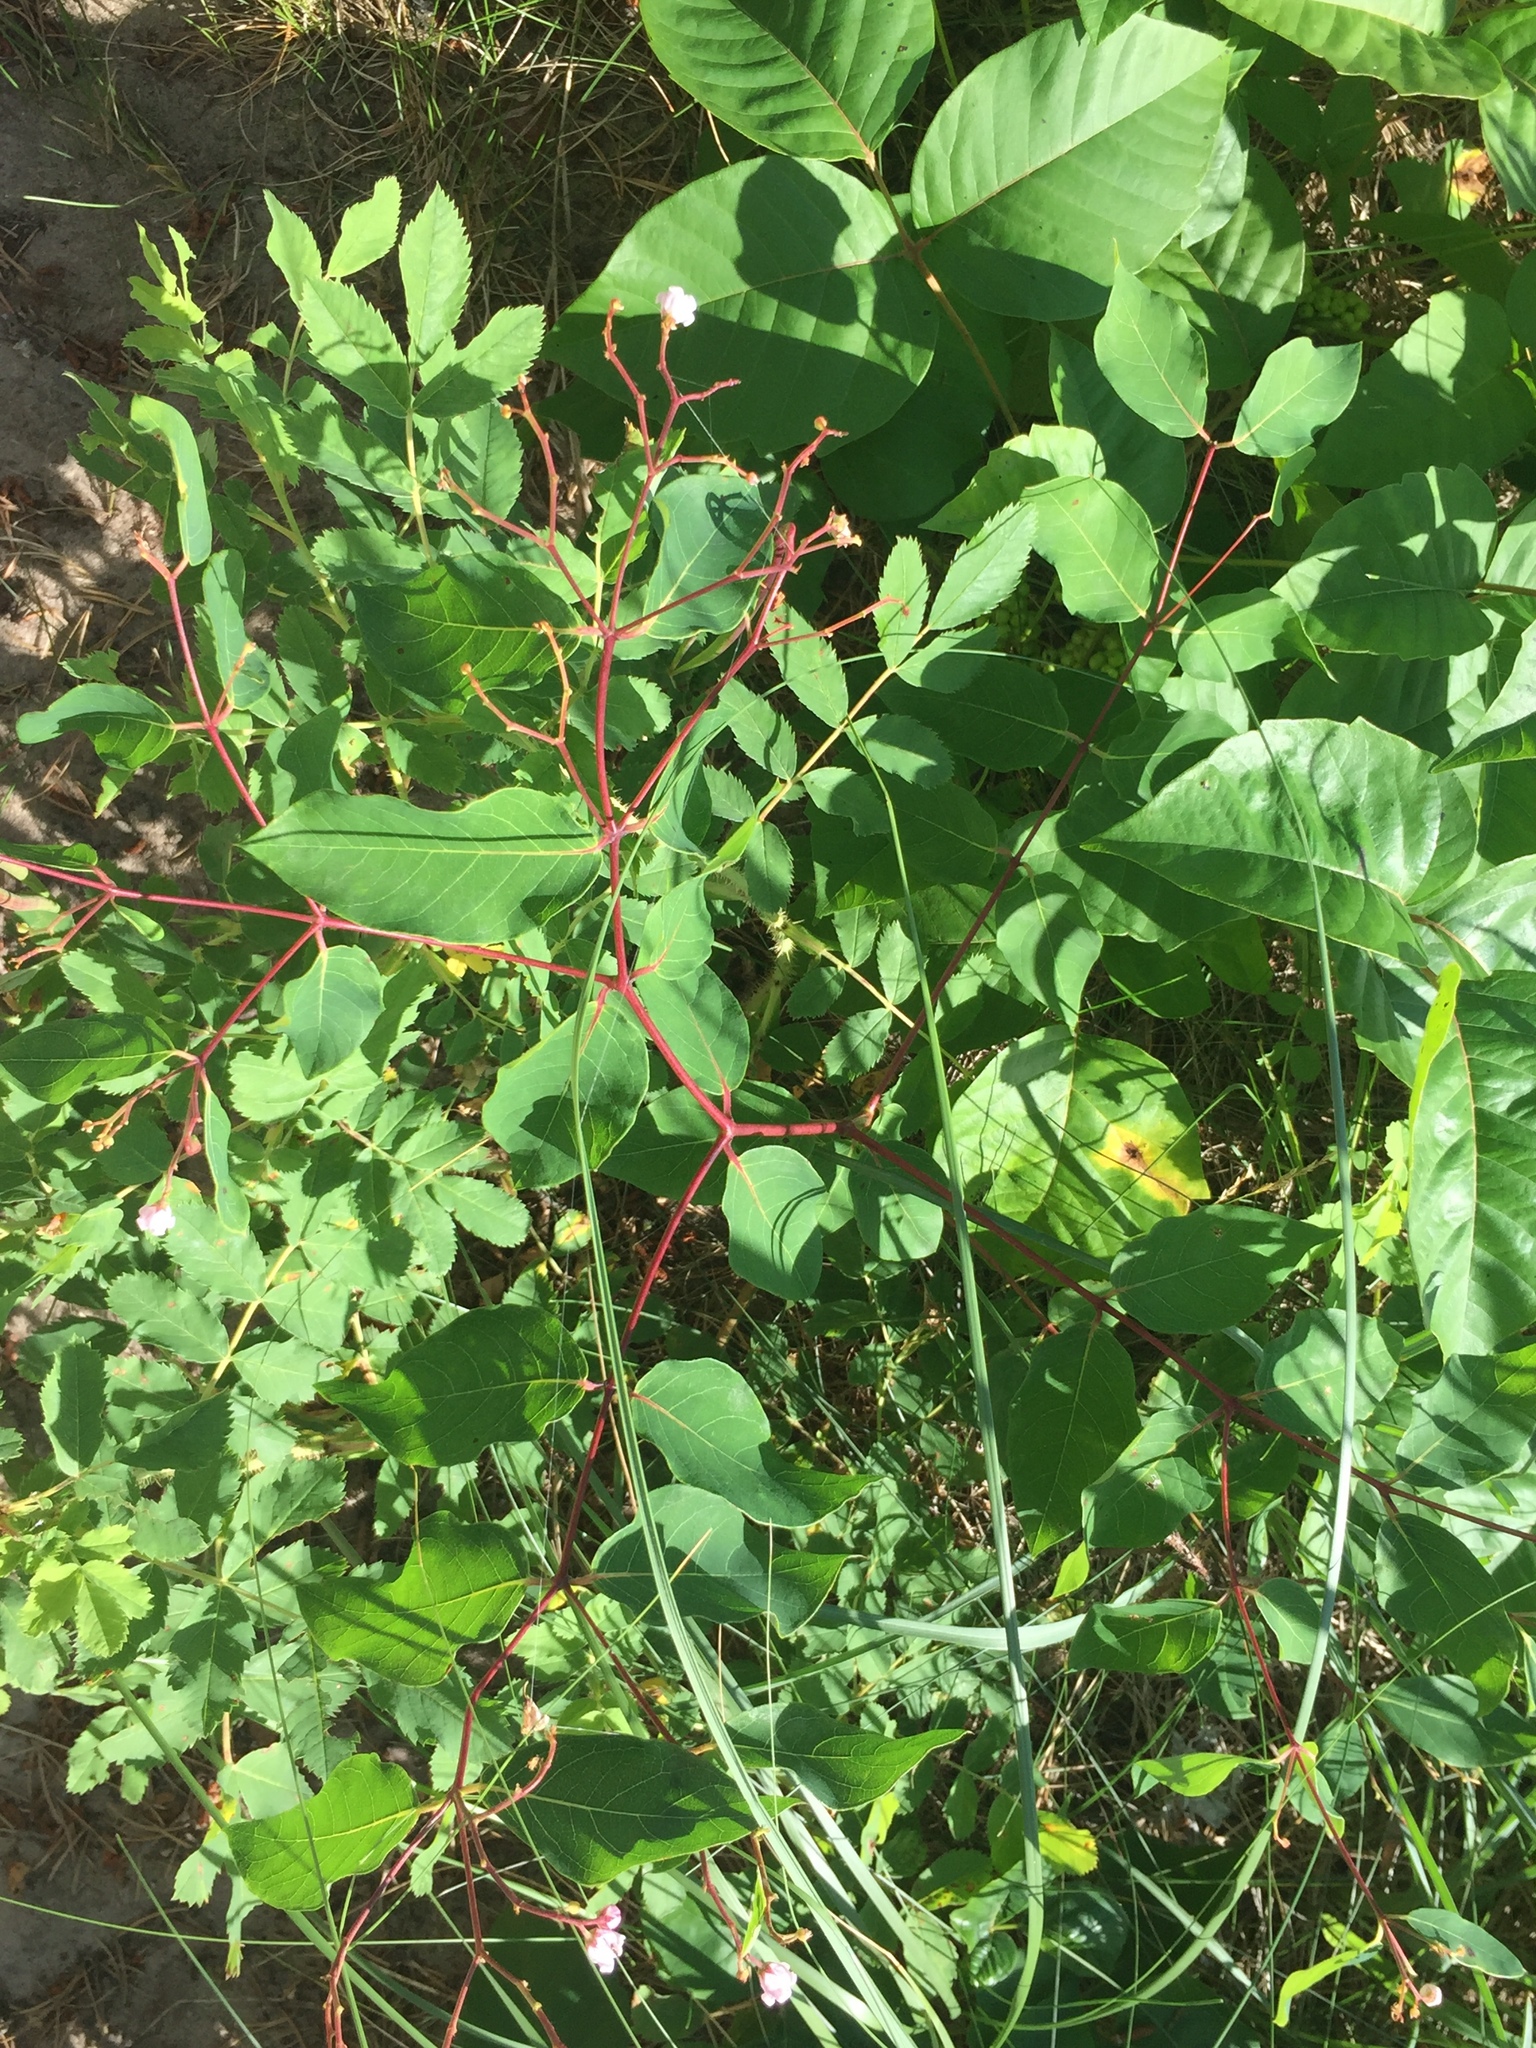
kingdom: Plantae
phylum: Tracheophyta
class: Magnoliopsida
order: Gentianales
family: Apocynaceae
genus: Apocynum
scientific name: Apocynum androsaemifolium
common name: Spreading dogbane
